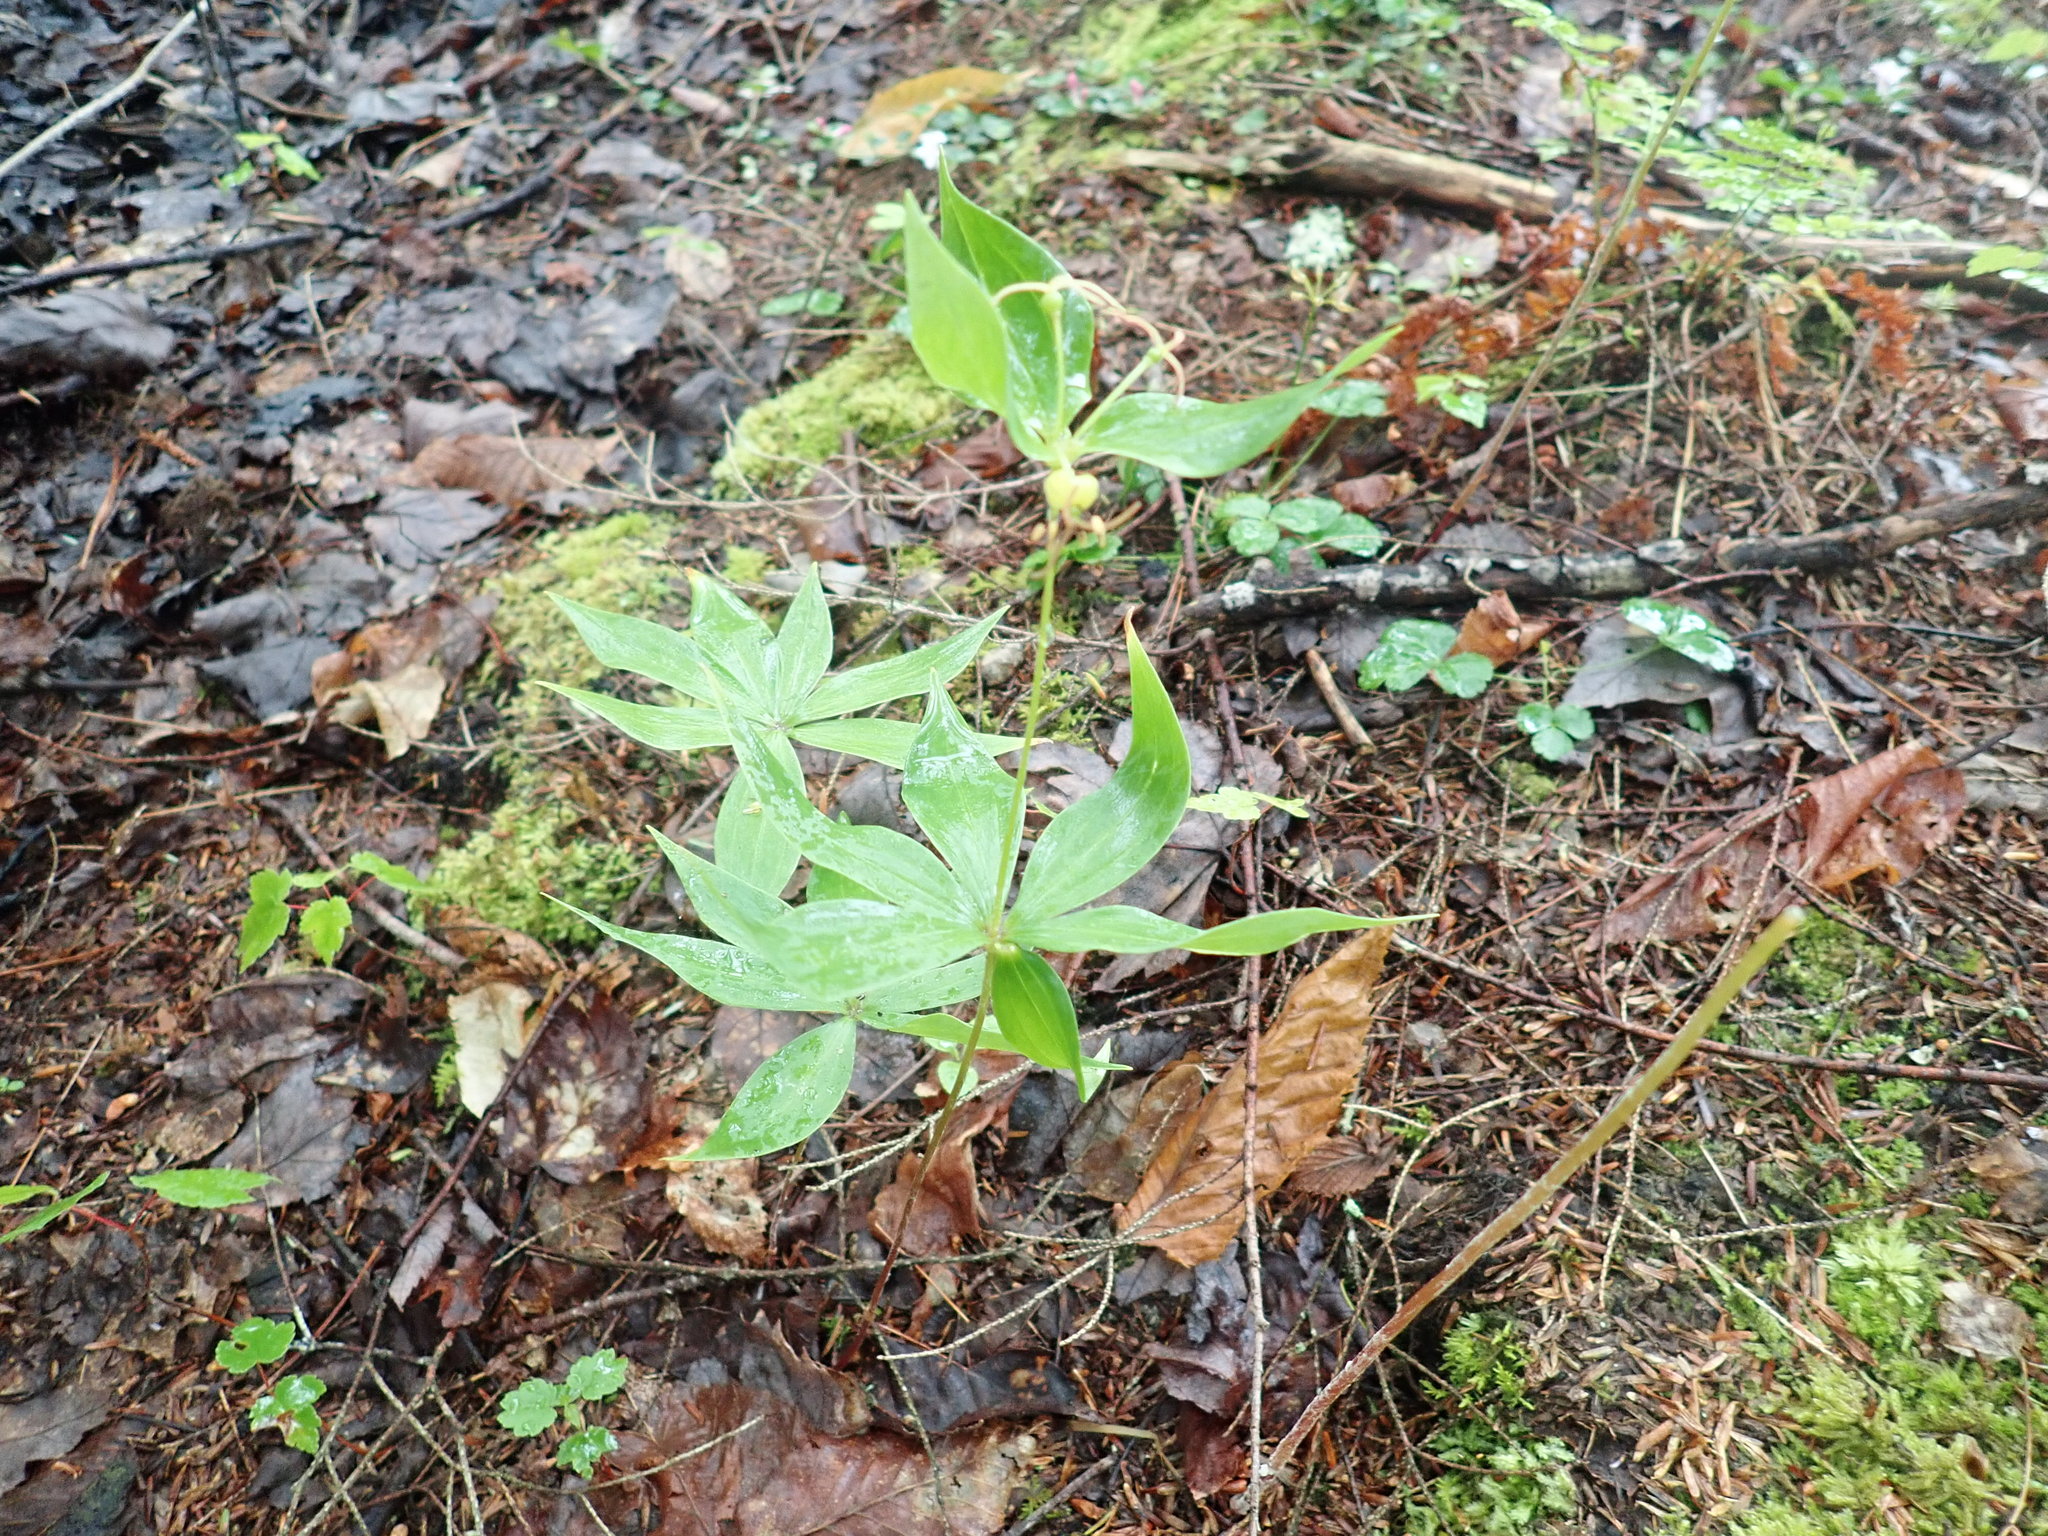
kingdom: Plantae
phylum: Tracheophyta
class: Liliopsida
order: Liliales
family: Liliaceae
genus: Medeola
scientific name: Medeola virginiana
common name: Indian cucumber-root
